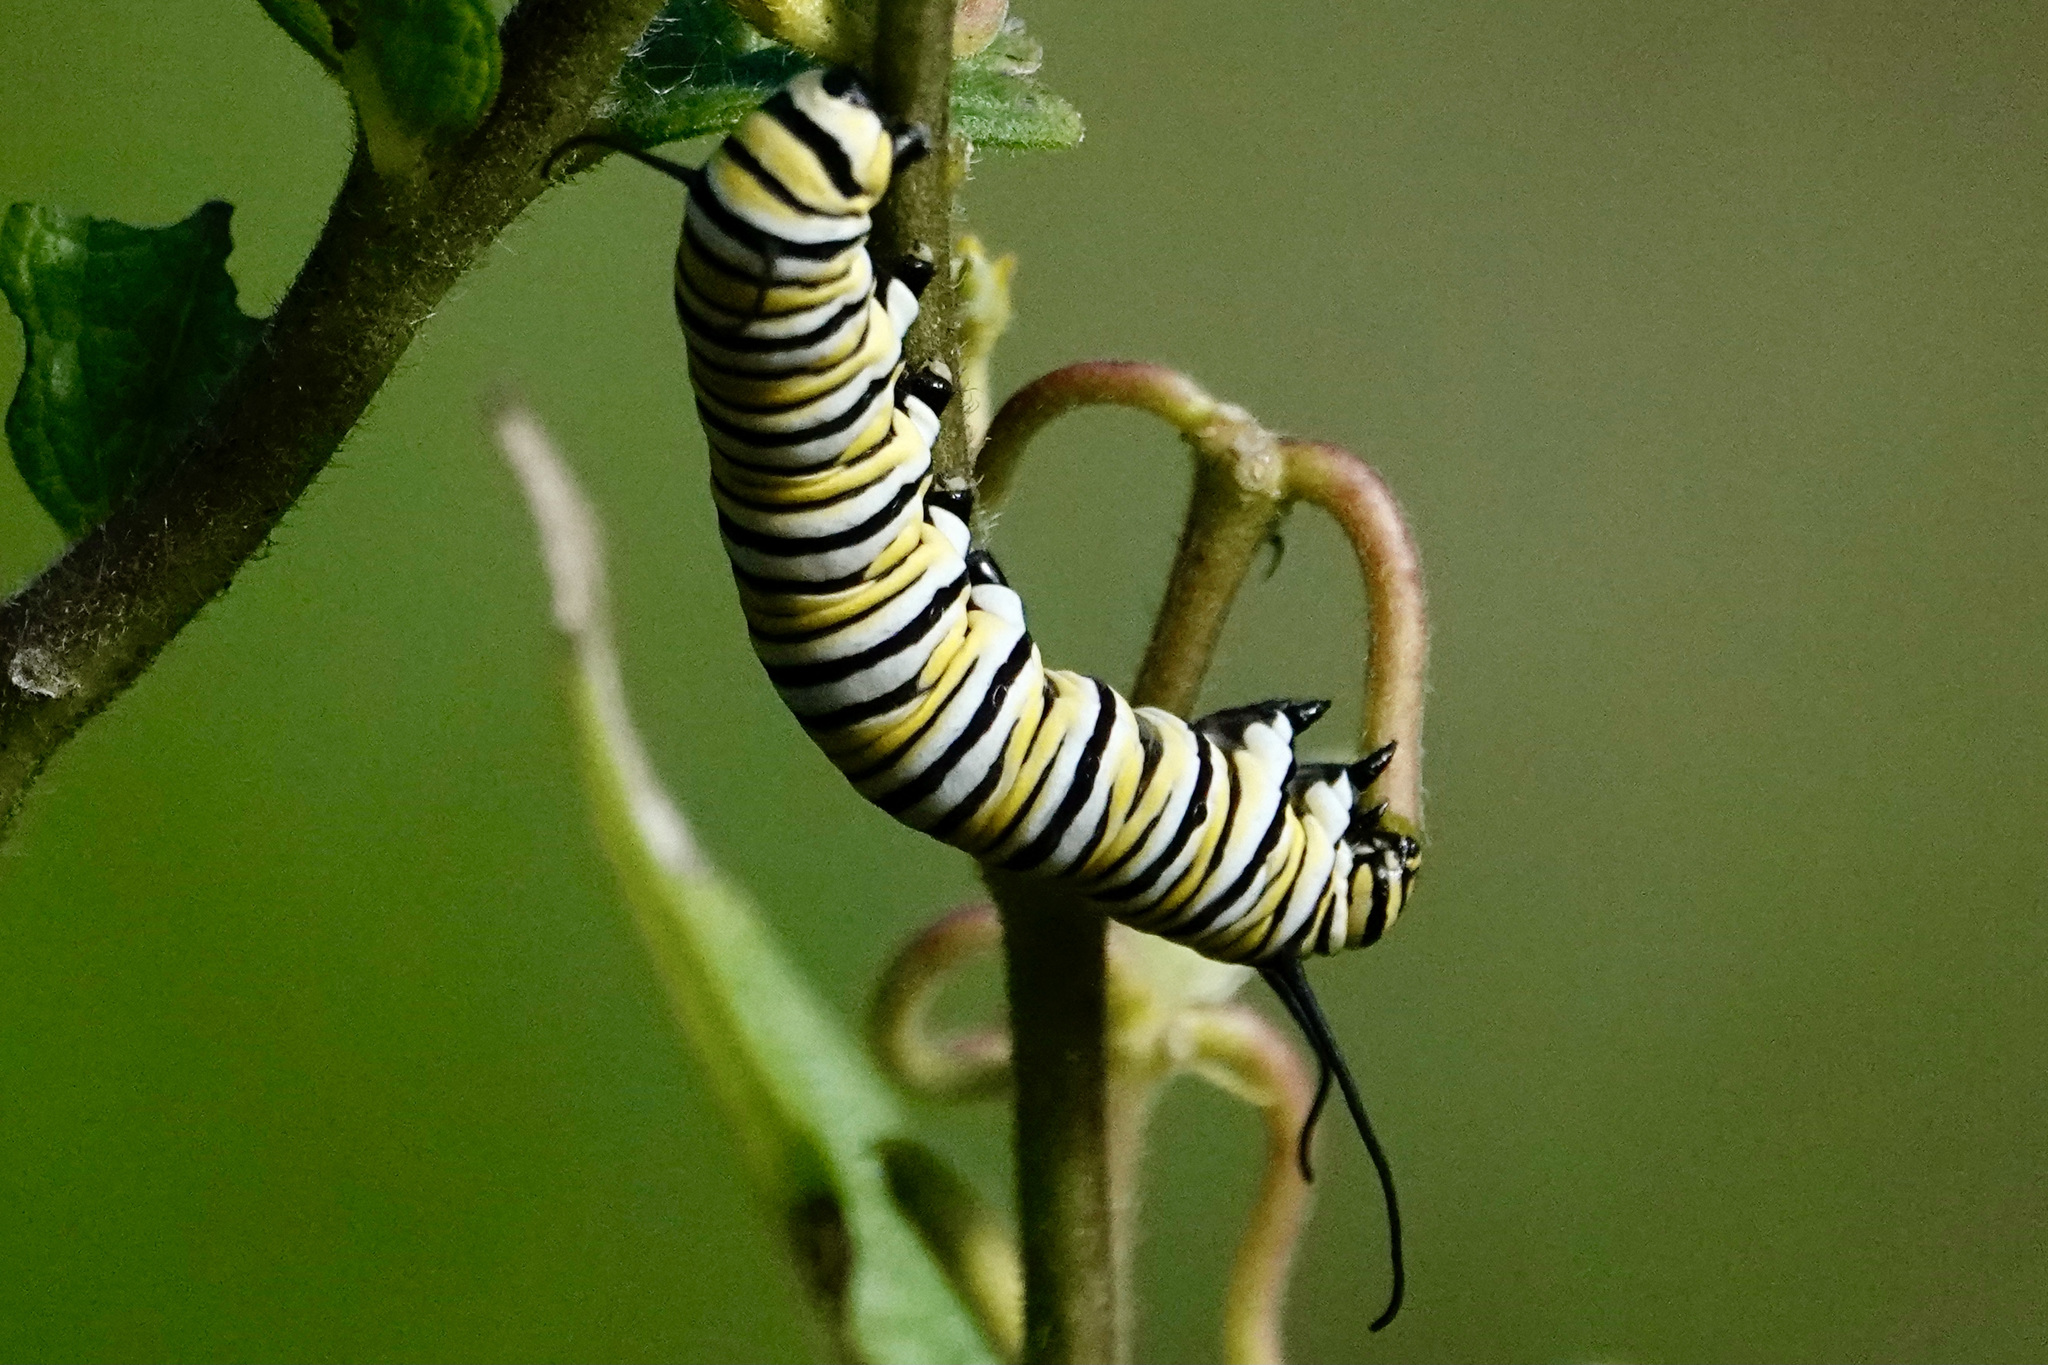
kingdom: Animalia
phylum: Arthropoda
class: Insecta
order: Lepidoptera
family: Nymphalidae
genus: Danaus
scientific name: Danaus plexippus
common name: Monarch
